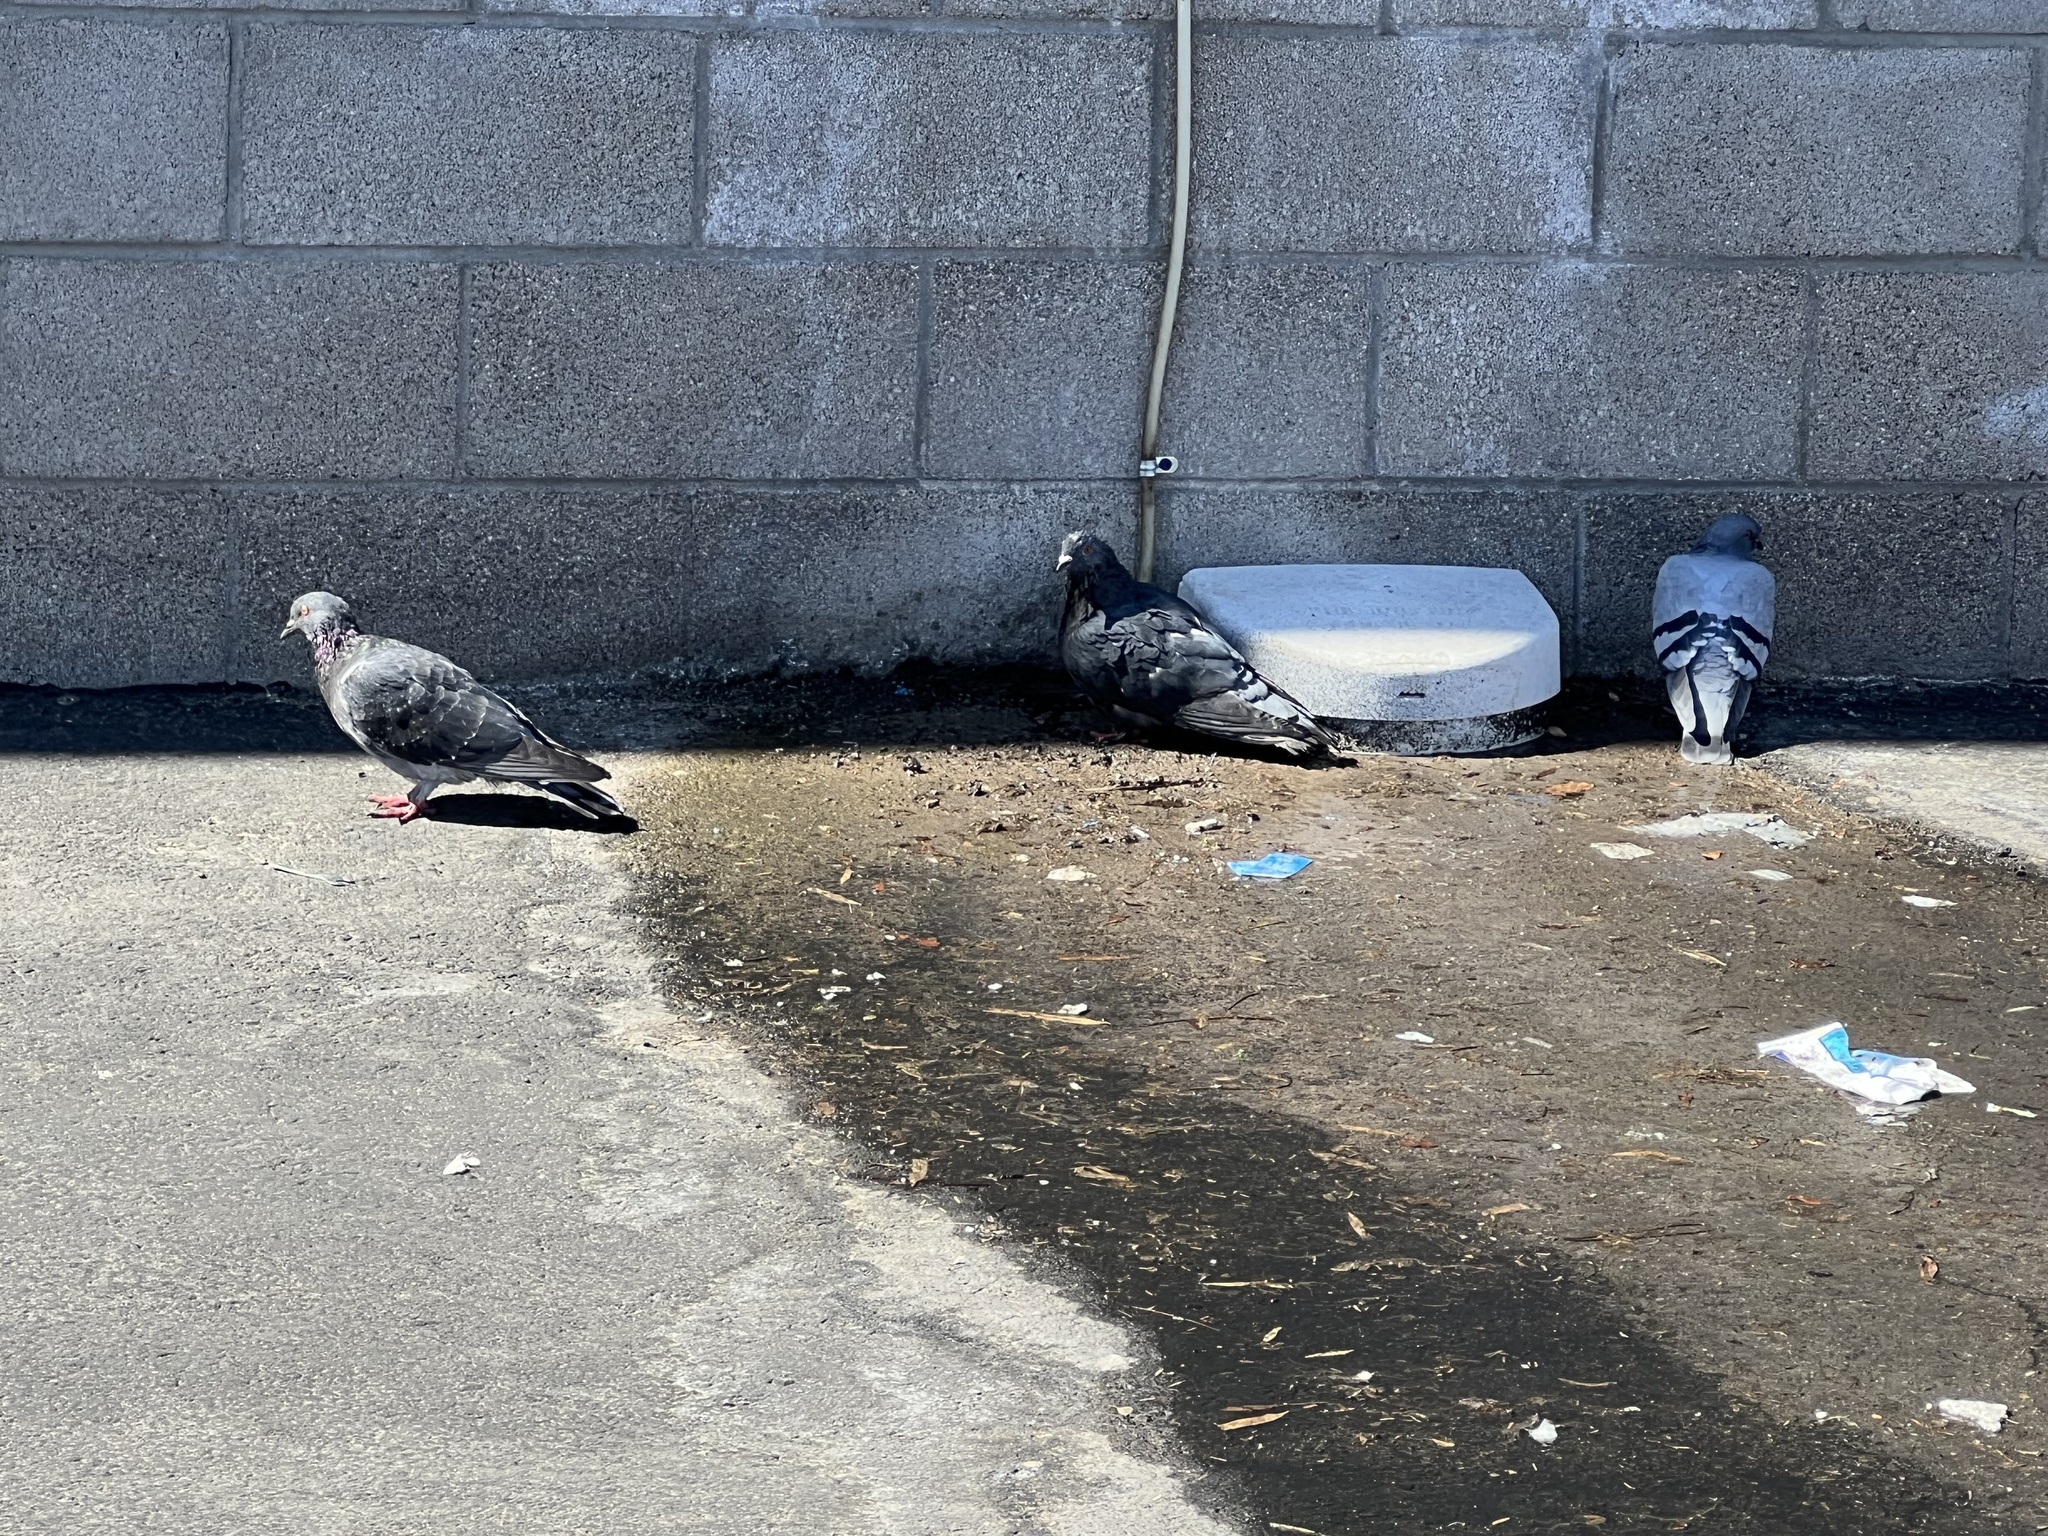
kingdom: Animalia
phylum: Chordata
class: Aves
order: Columbiformes
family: Columbidae
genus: Columba
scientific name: Columba livia
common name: Rock pigeon
